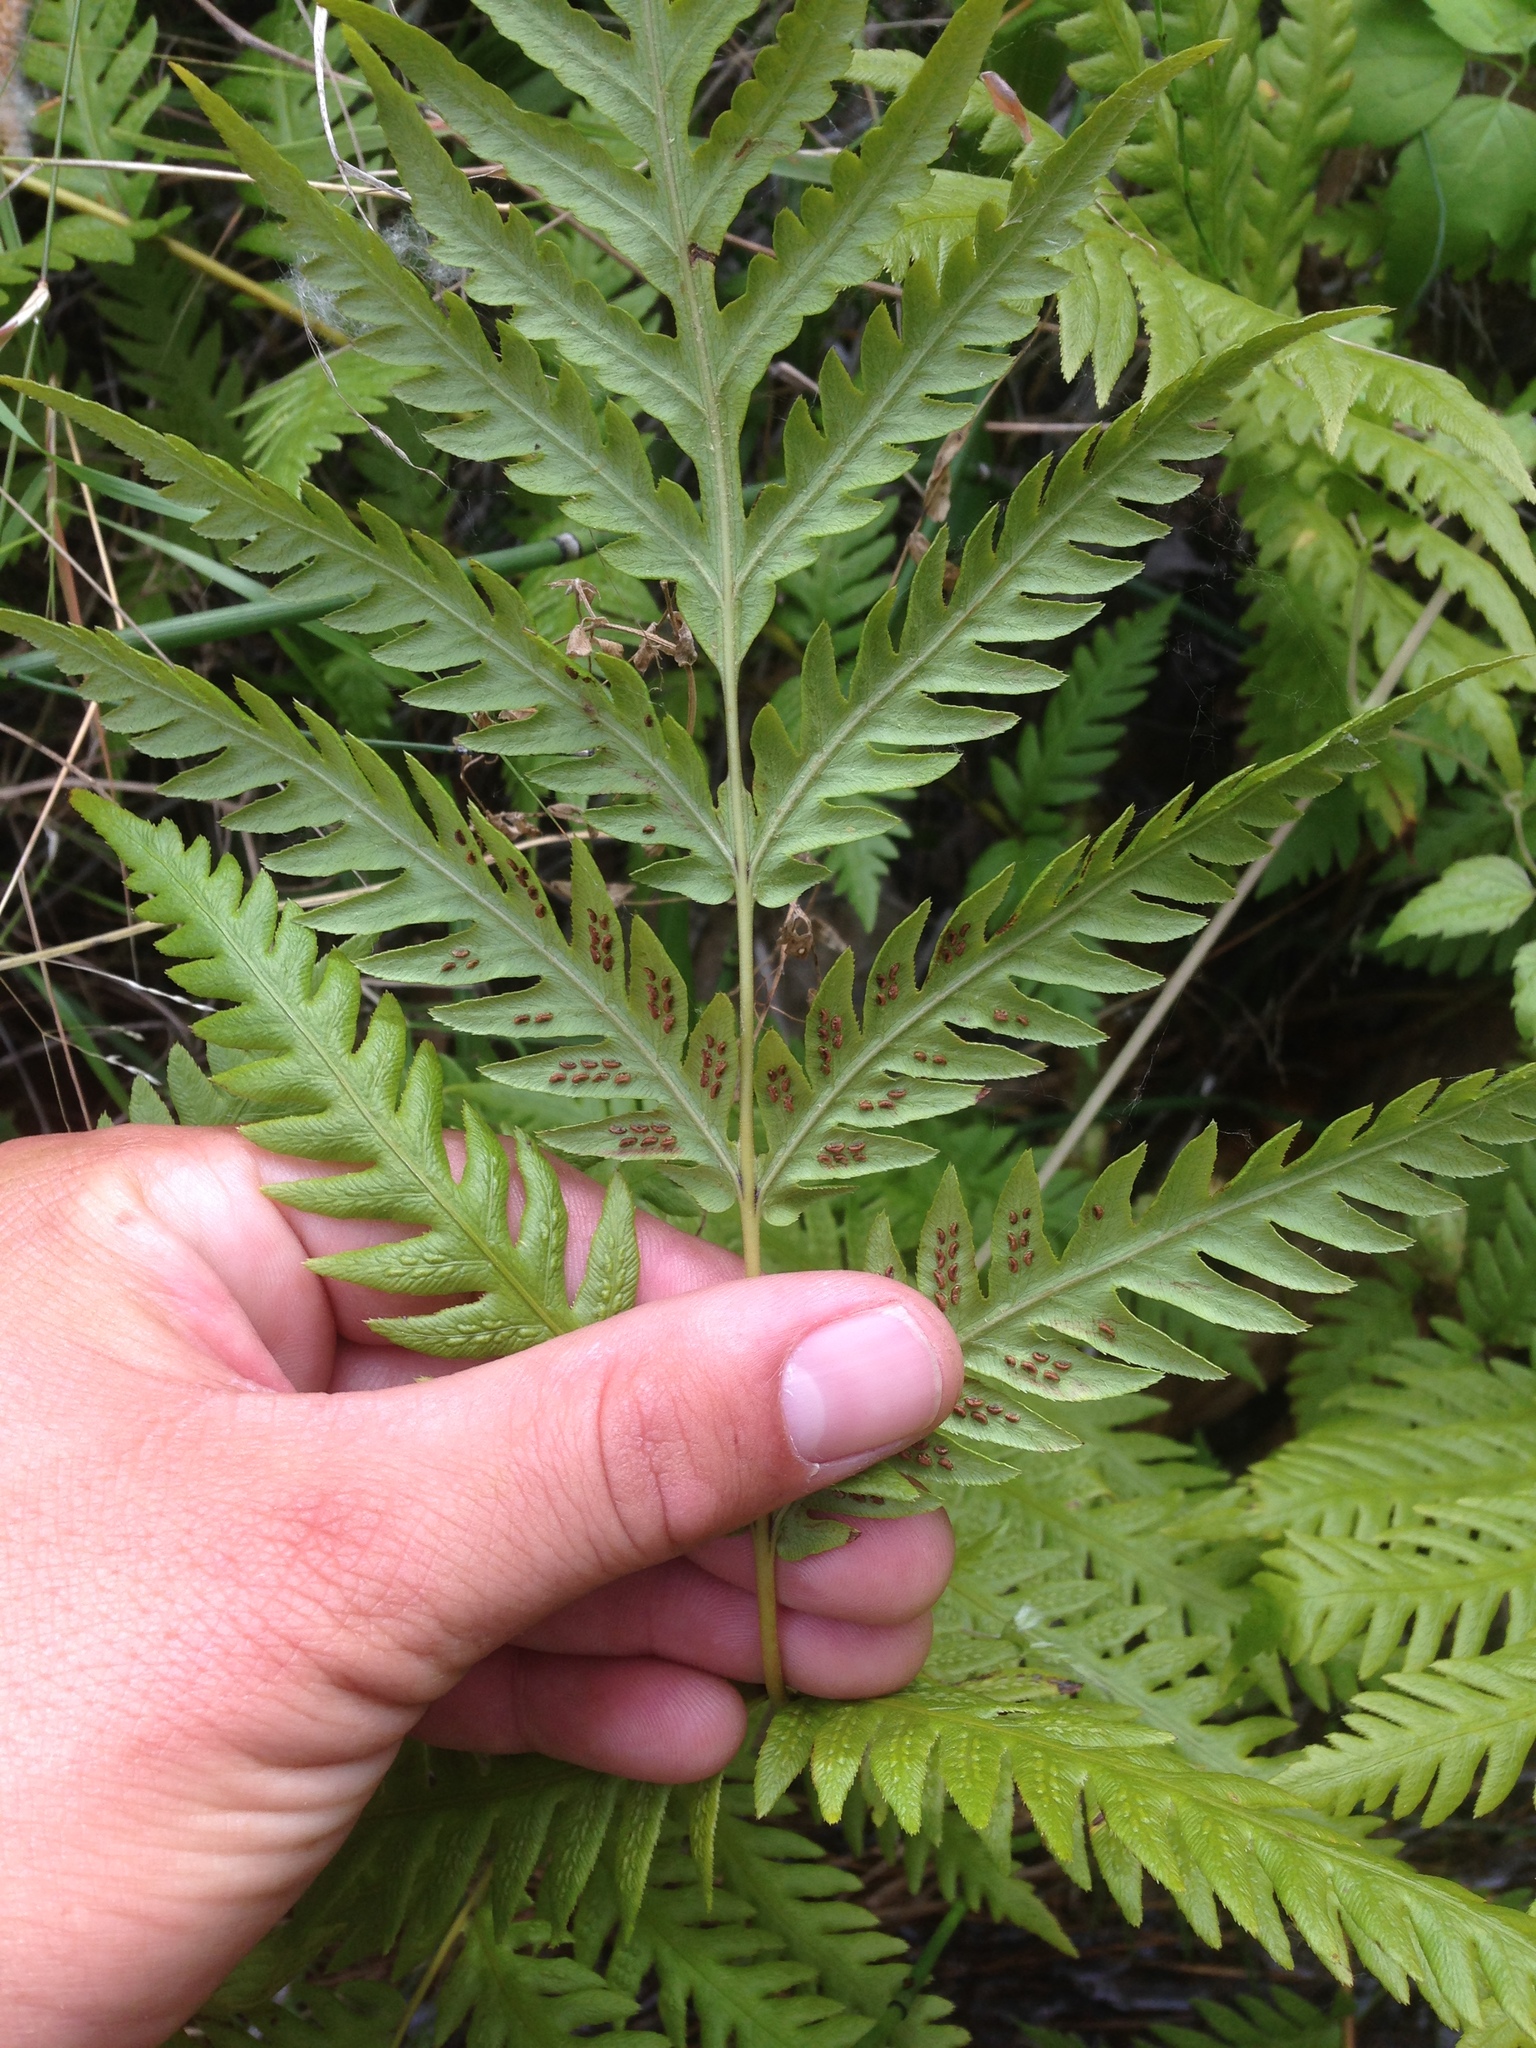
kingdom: Plantae
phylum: Tracheophyta
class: Polypodiopsida
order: Polypodiales
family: Blechnaceae
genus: Woodwardia
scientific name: Woodwardia fimbriata
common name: Giant chain fern
